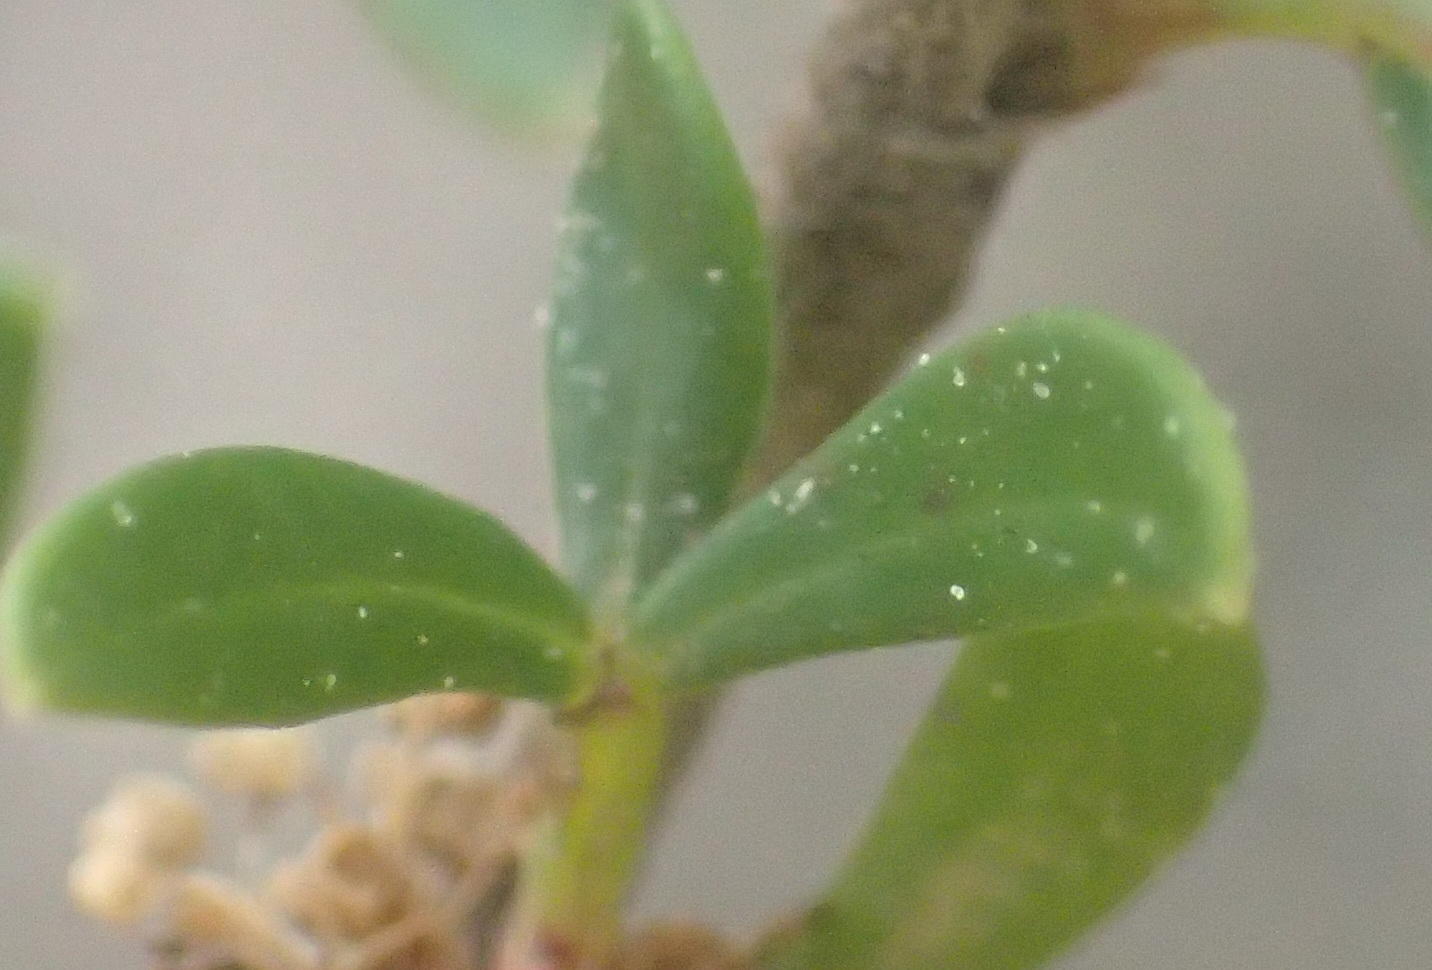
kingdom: Plantae
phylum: Tracheophyta
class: Magnoliopsida
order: Rosales
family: Rosaceae
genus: Cliffortia
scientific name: Cliffortia falcata
